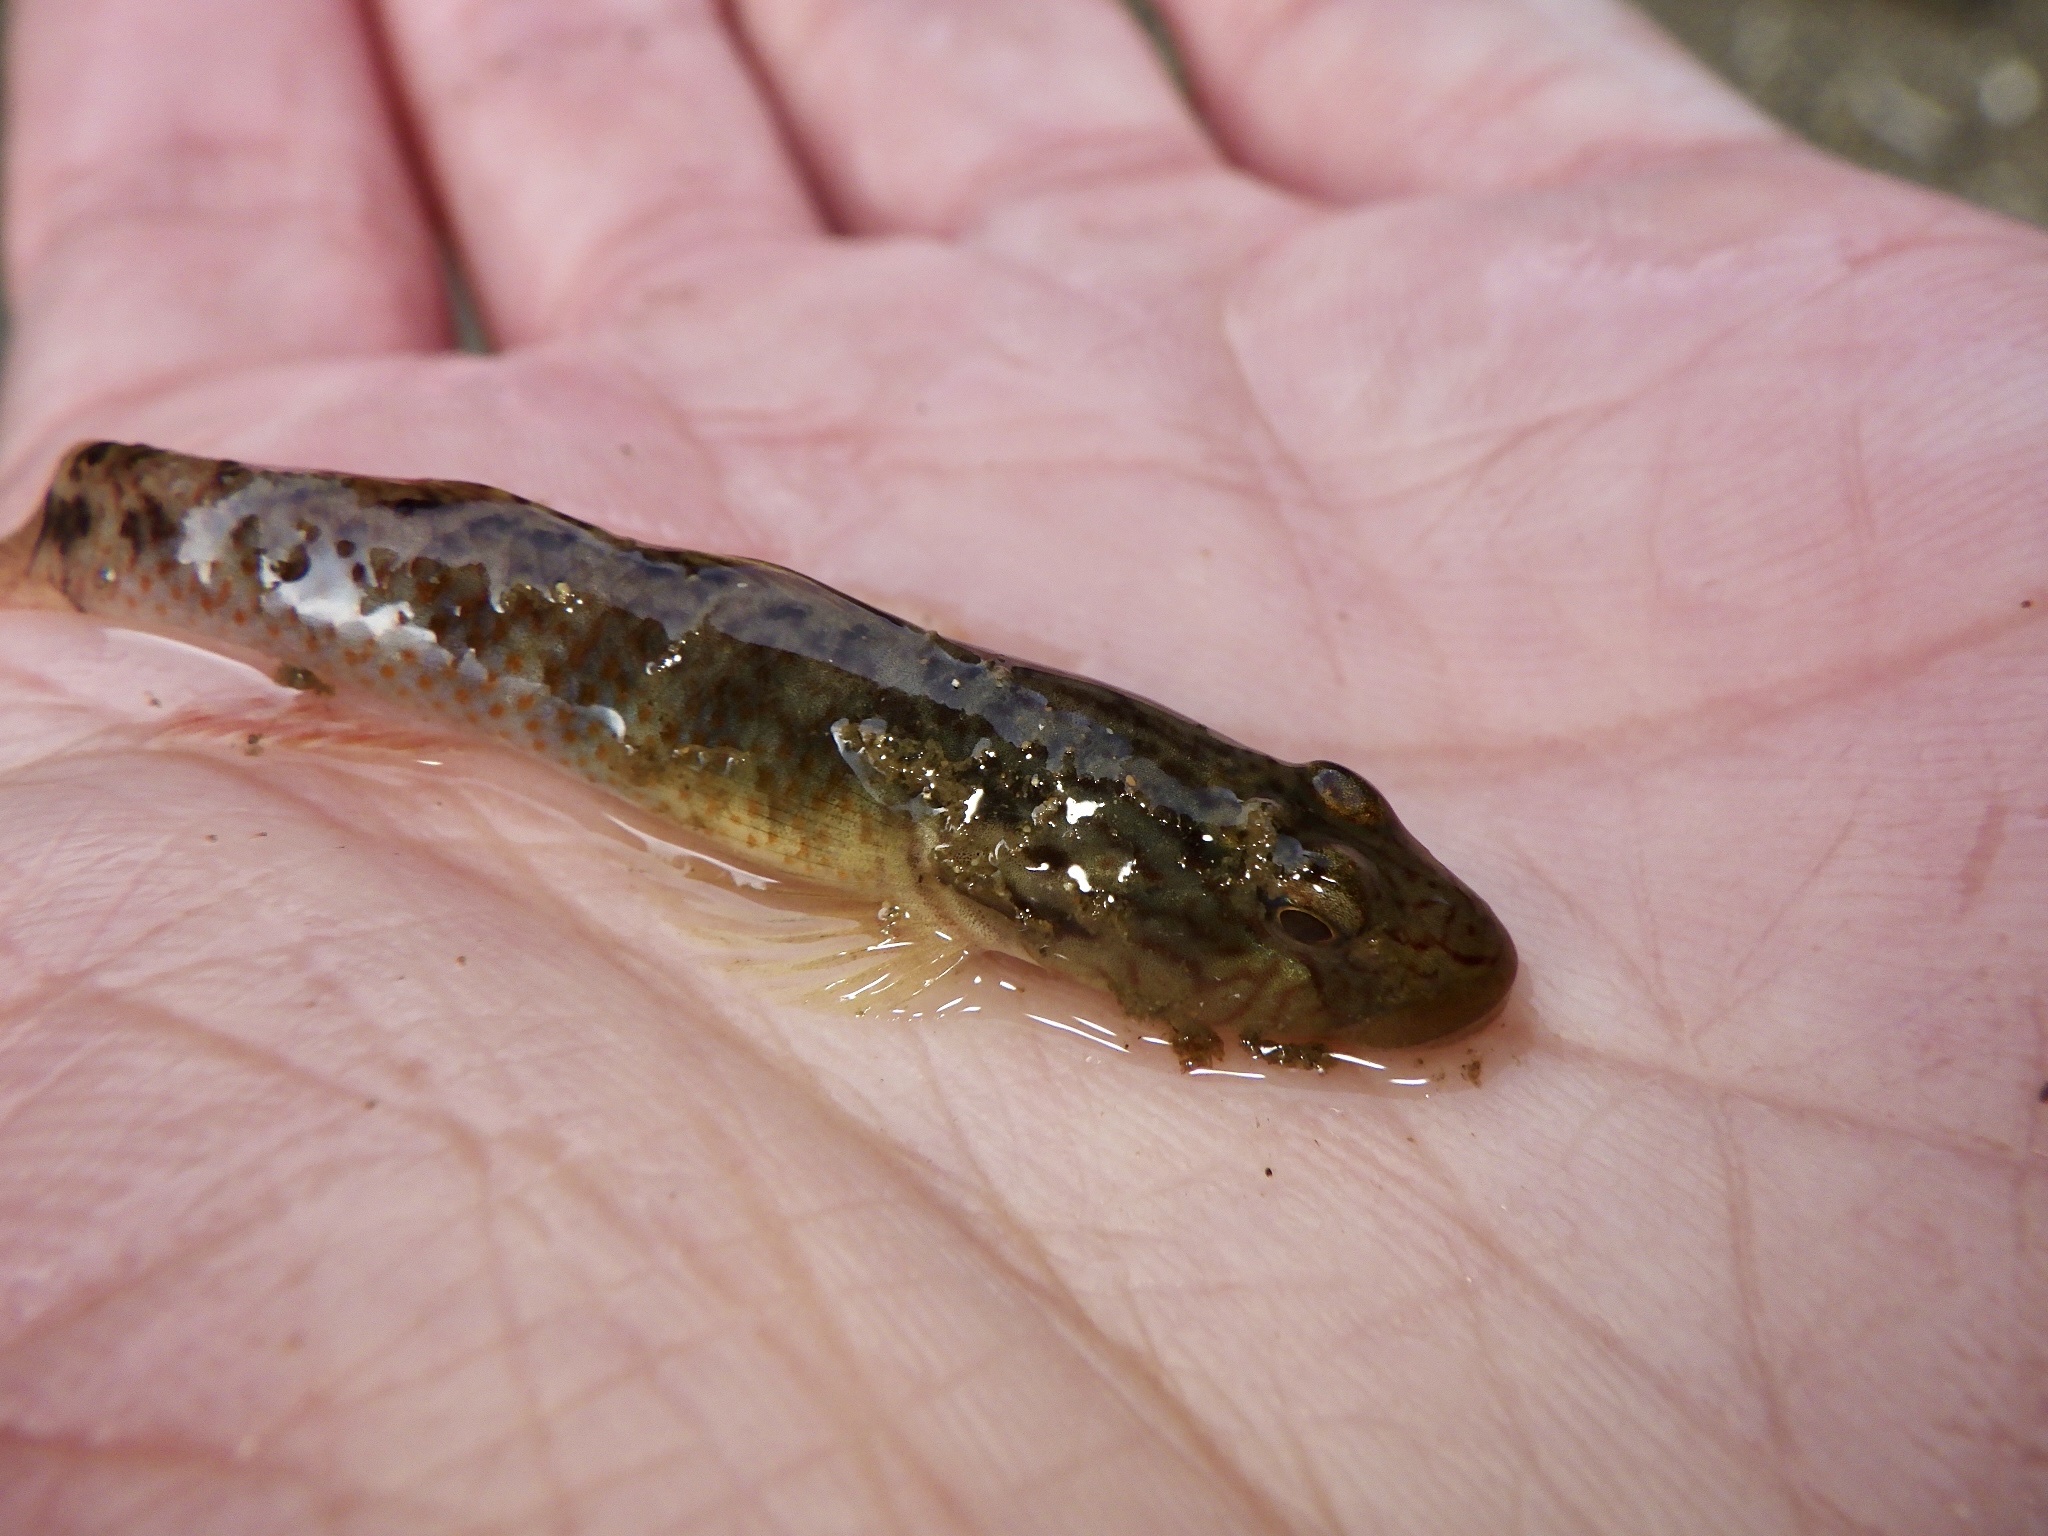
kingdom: Animalia
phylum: Chordata
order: Perciformes
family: Gobiidae
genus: Rhinogobius
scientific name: Rhinogobius nagoyae
